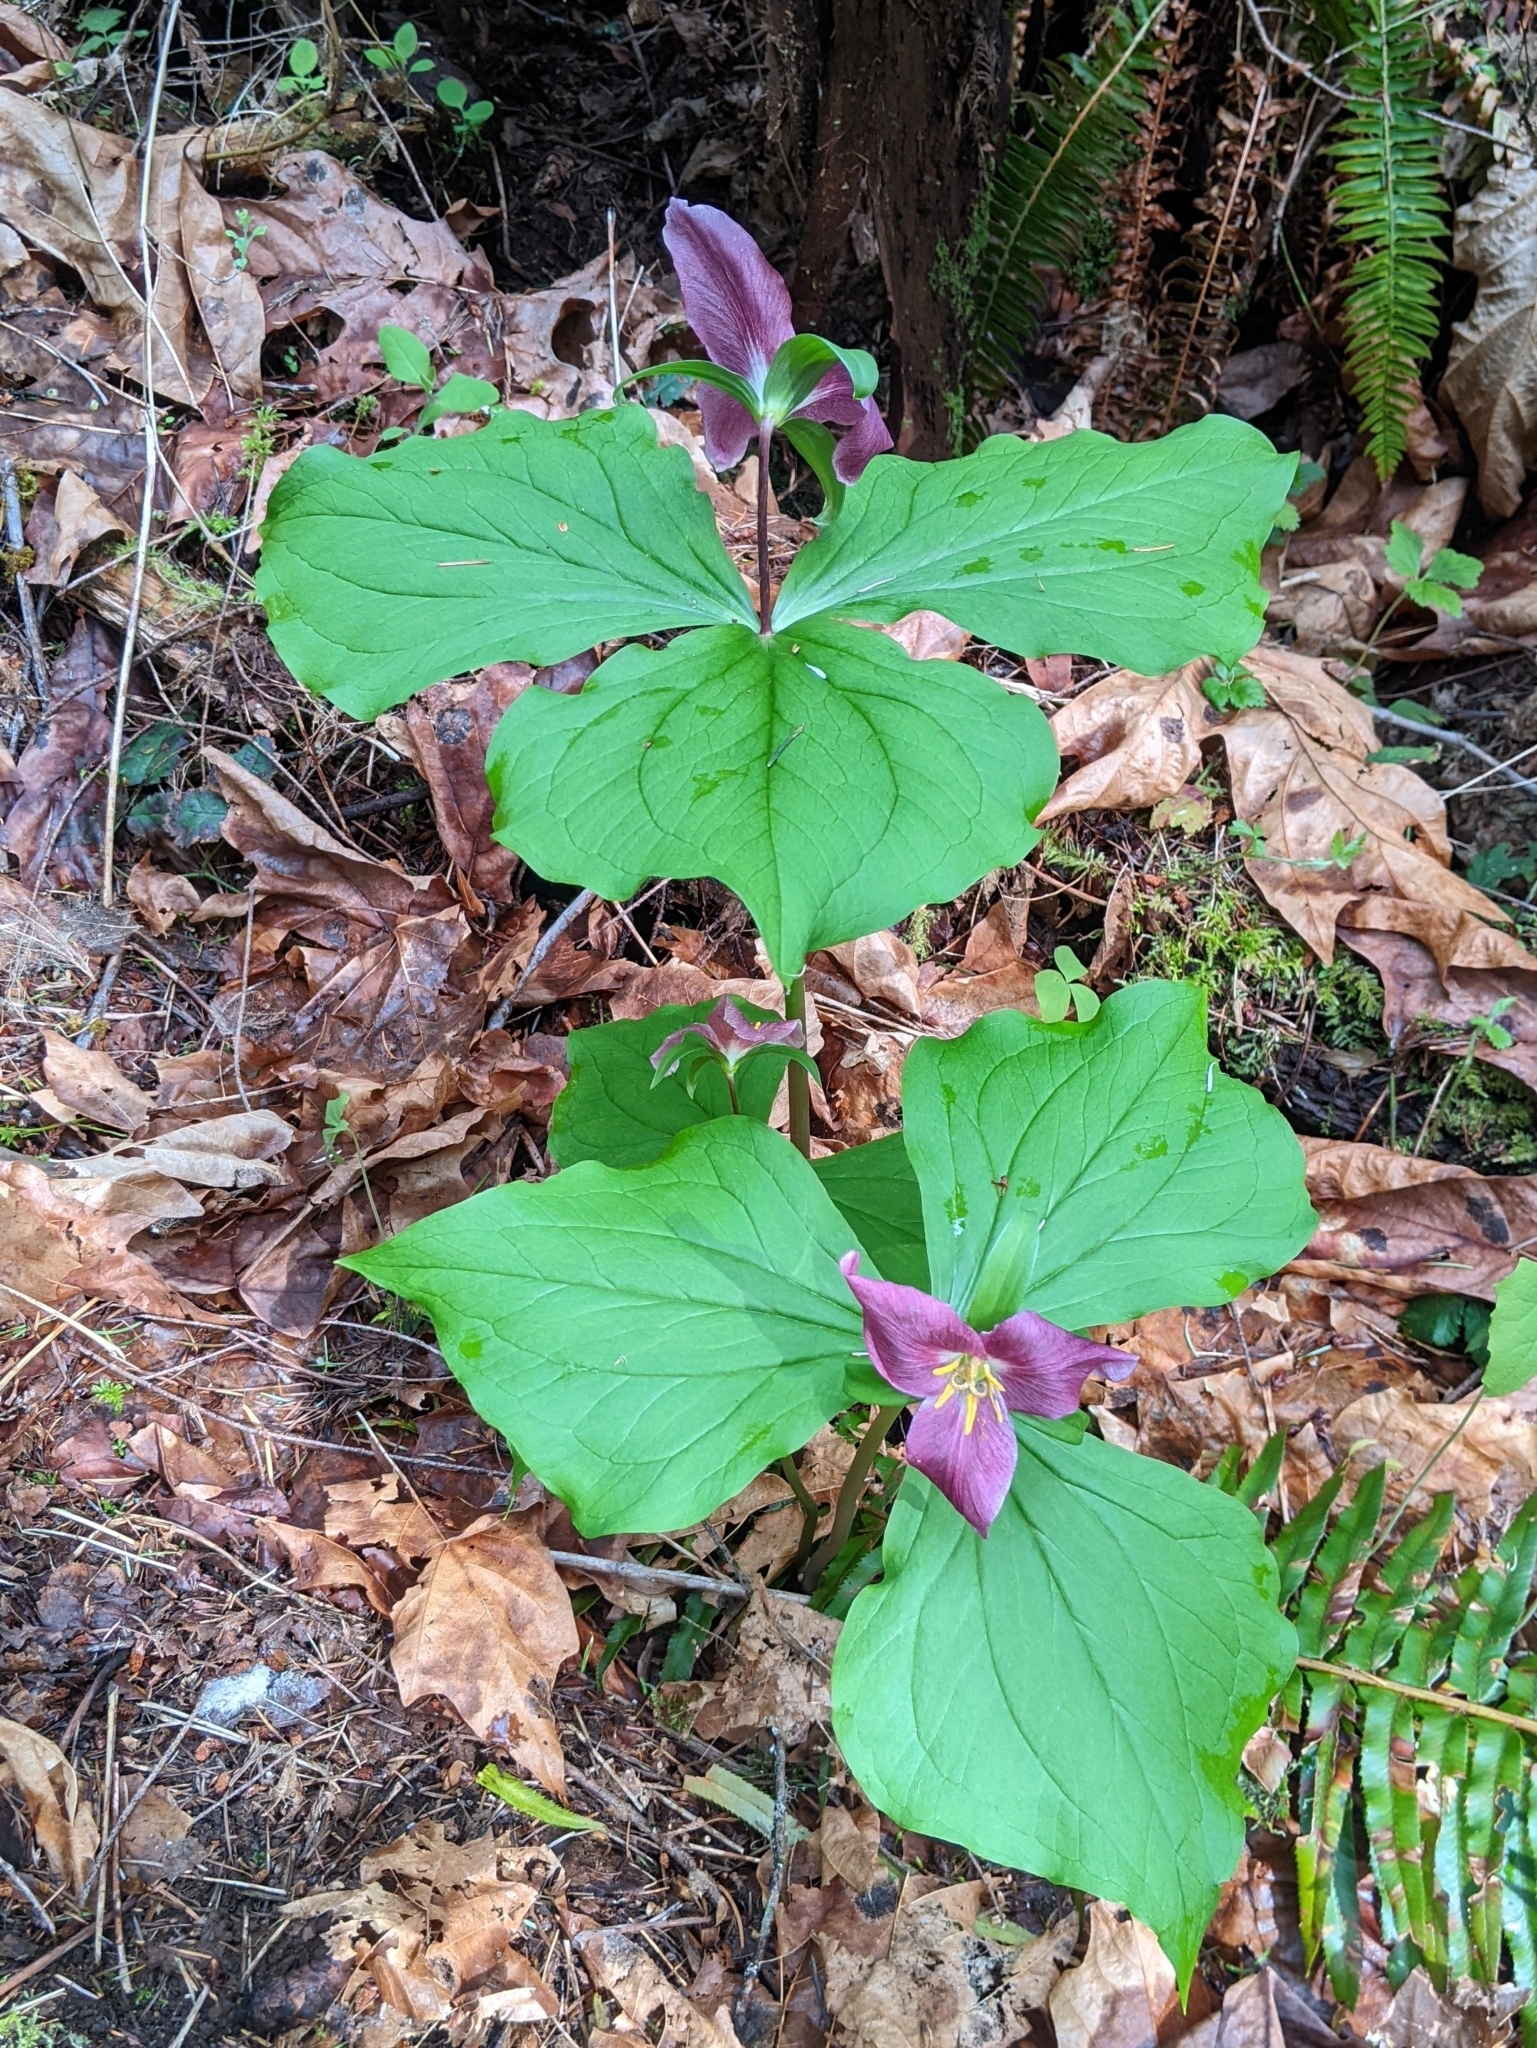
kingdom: Plantae
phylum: Tracheophyta
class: Liliopsida
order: Liliales
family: Melanthiaceae
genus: Trillium
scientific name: Trillium ovatum
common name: Pacific trillium
